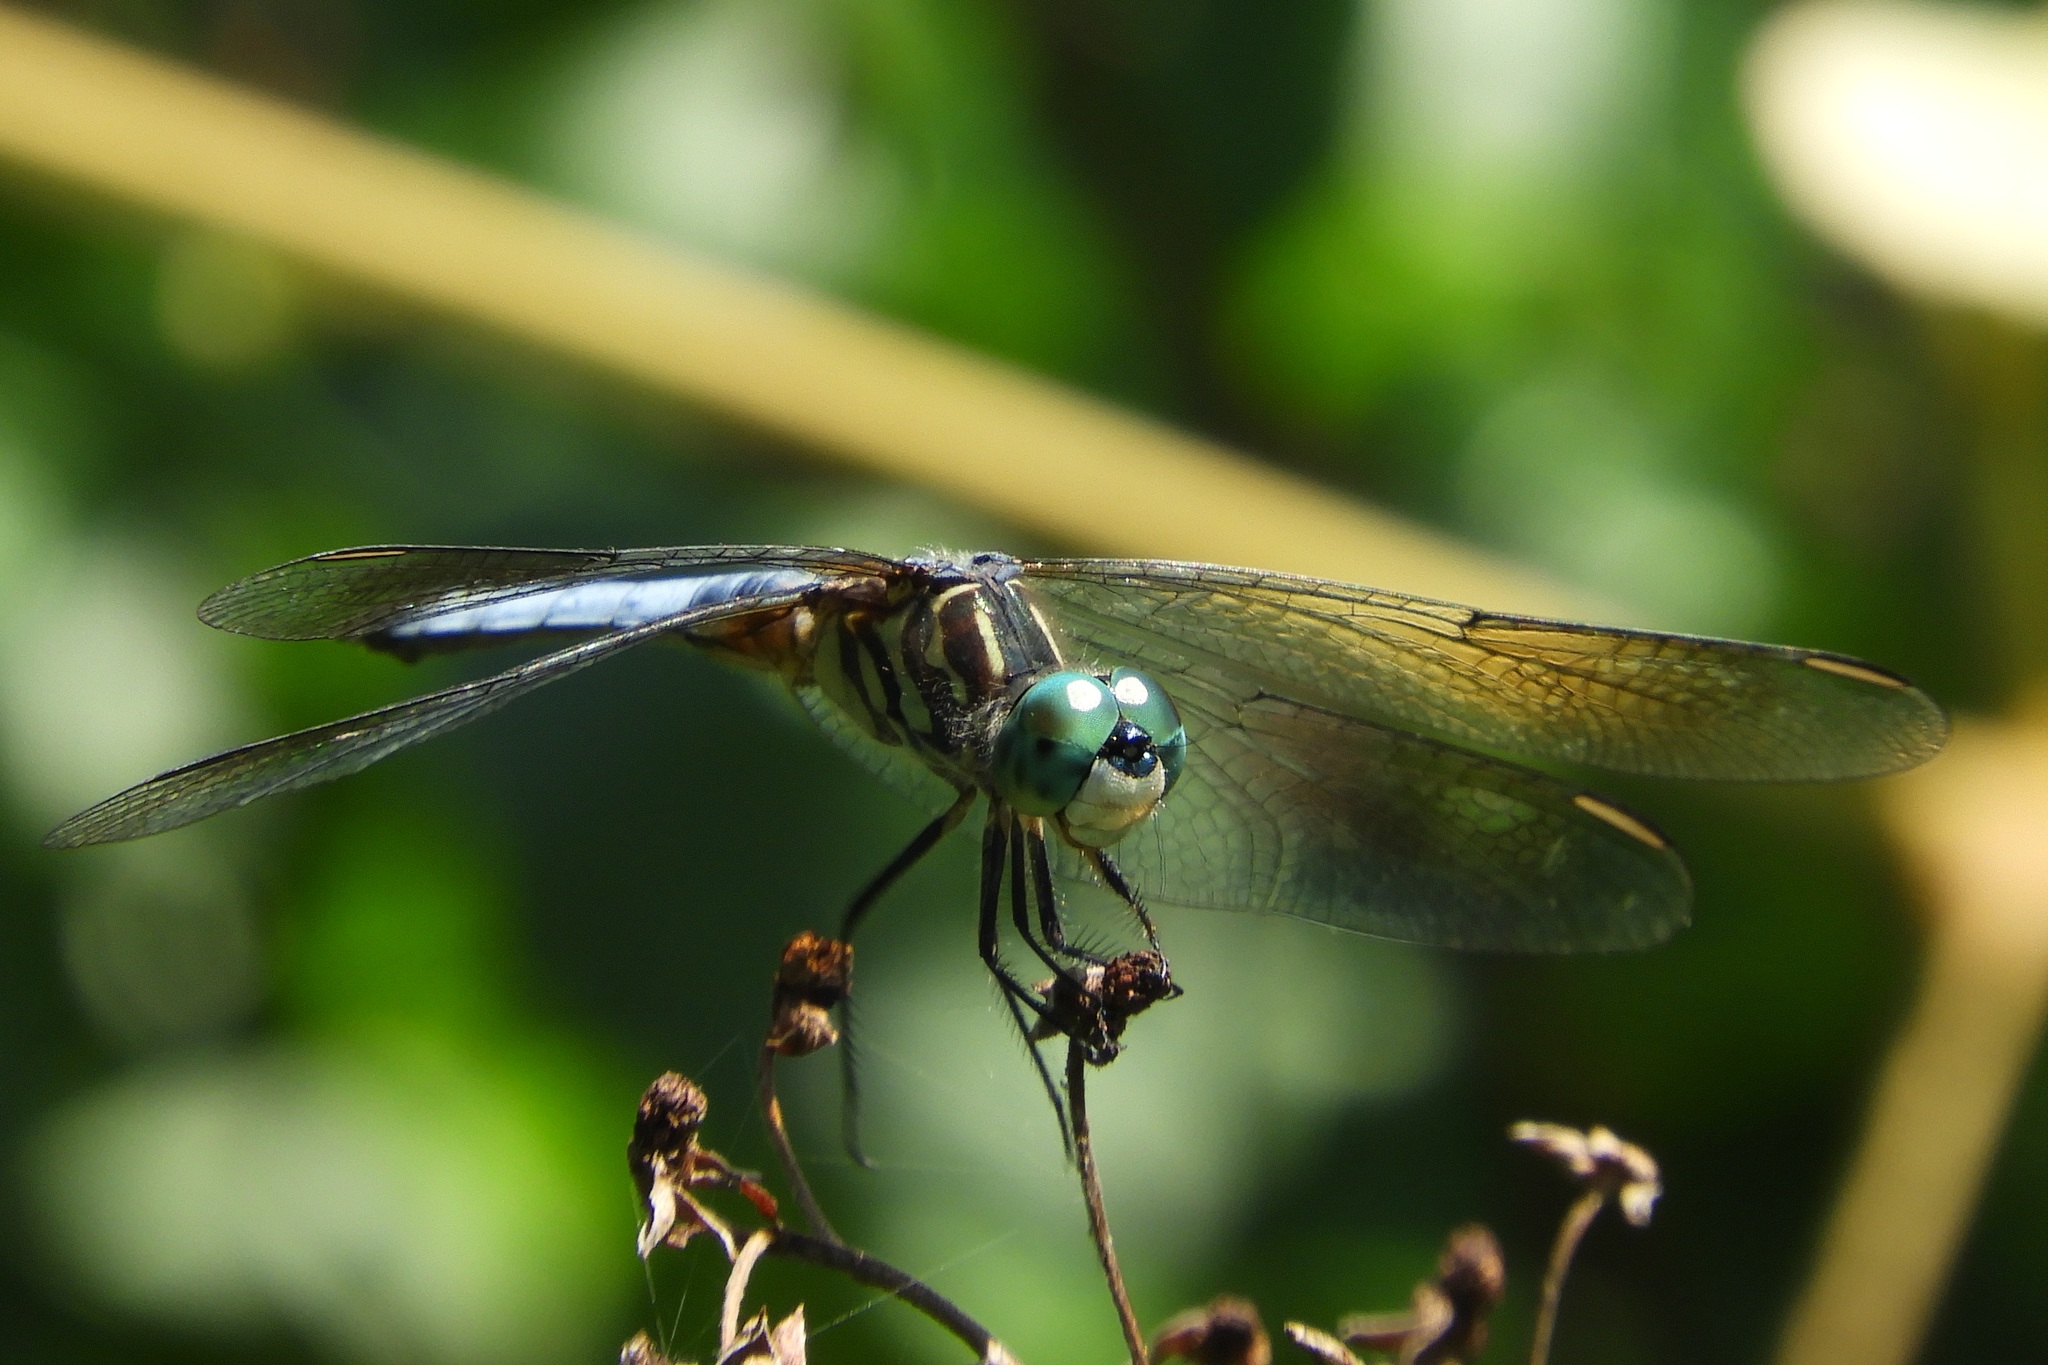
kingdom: Animalia
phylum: Arthropoda
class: Insecta
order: Odonata
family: Libellulidae
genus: Pachydiplax
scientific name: Pachydiplax longipennis
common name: Blue dasher
